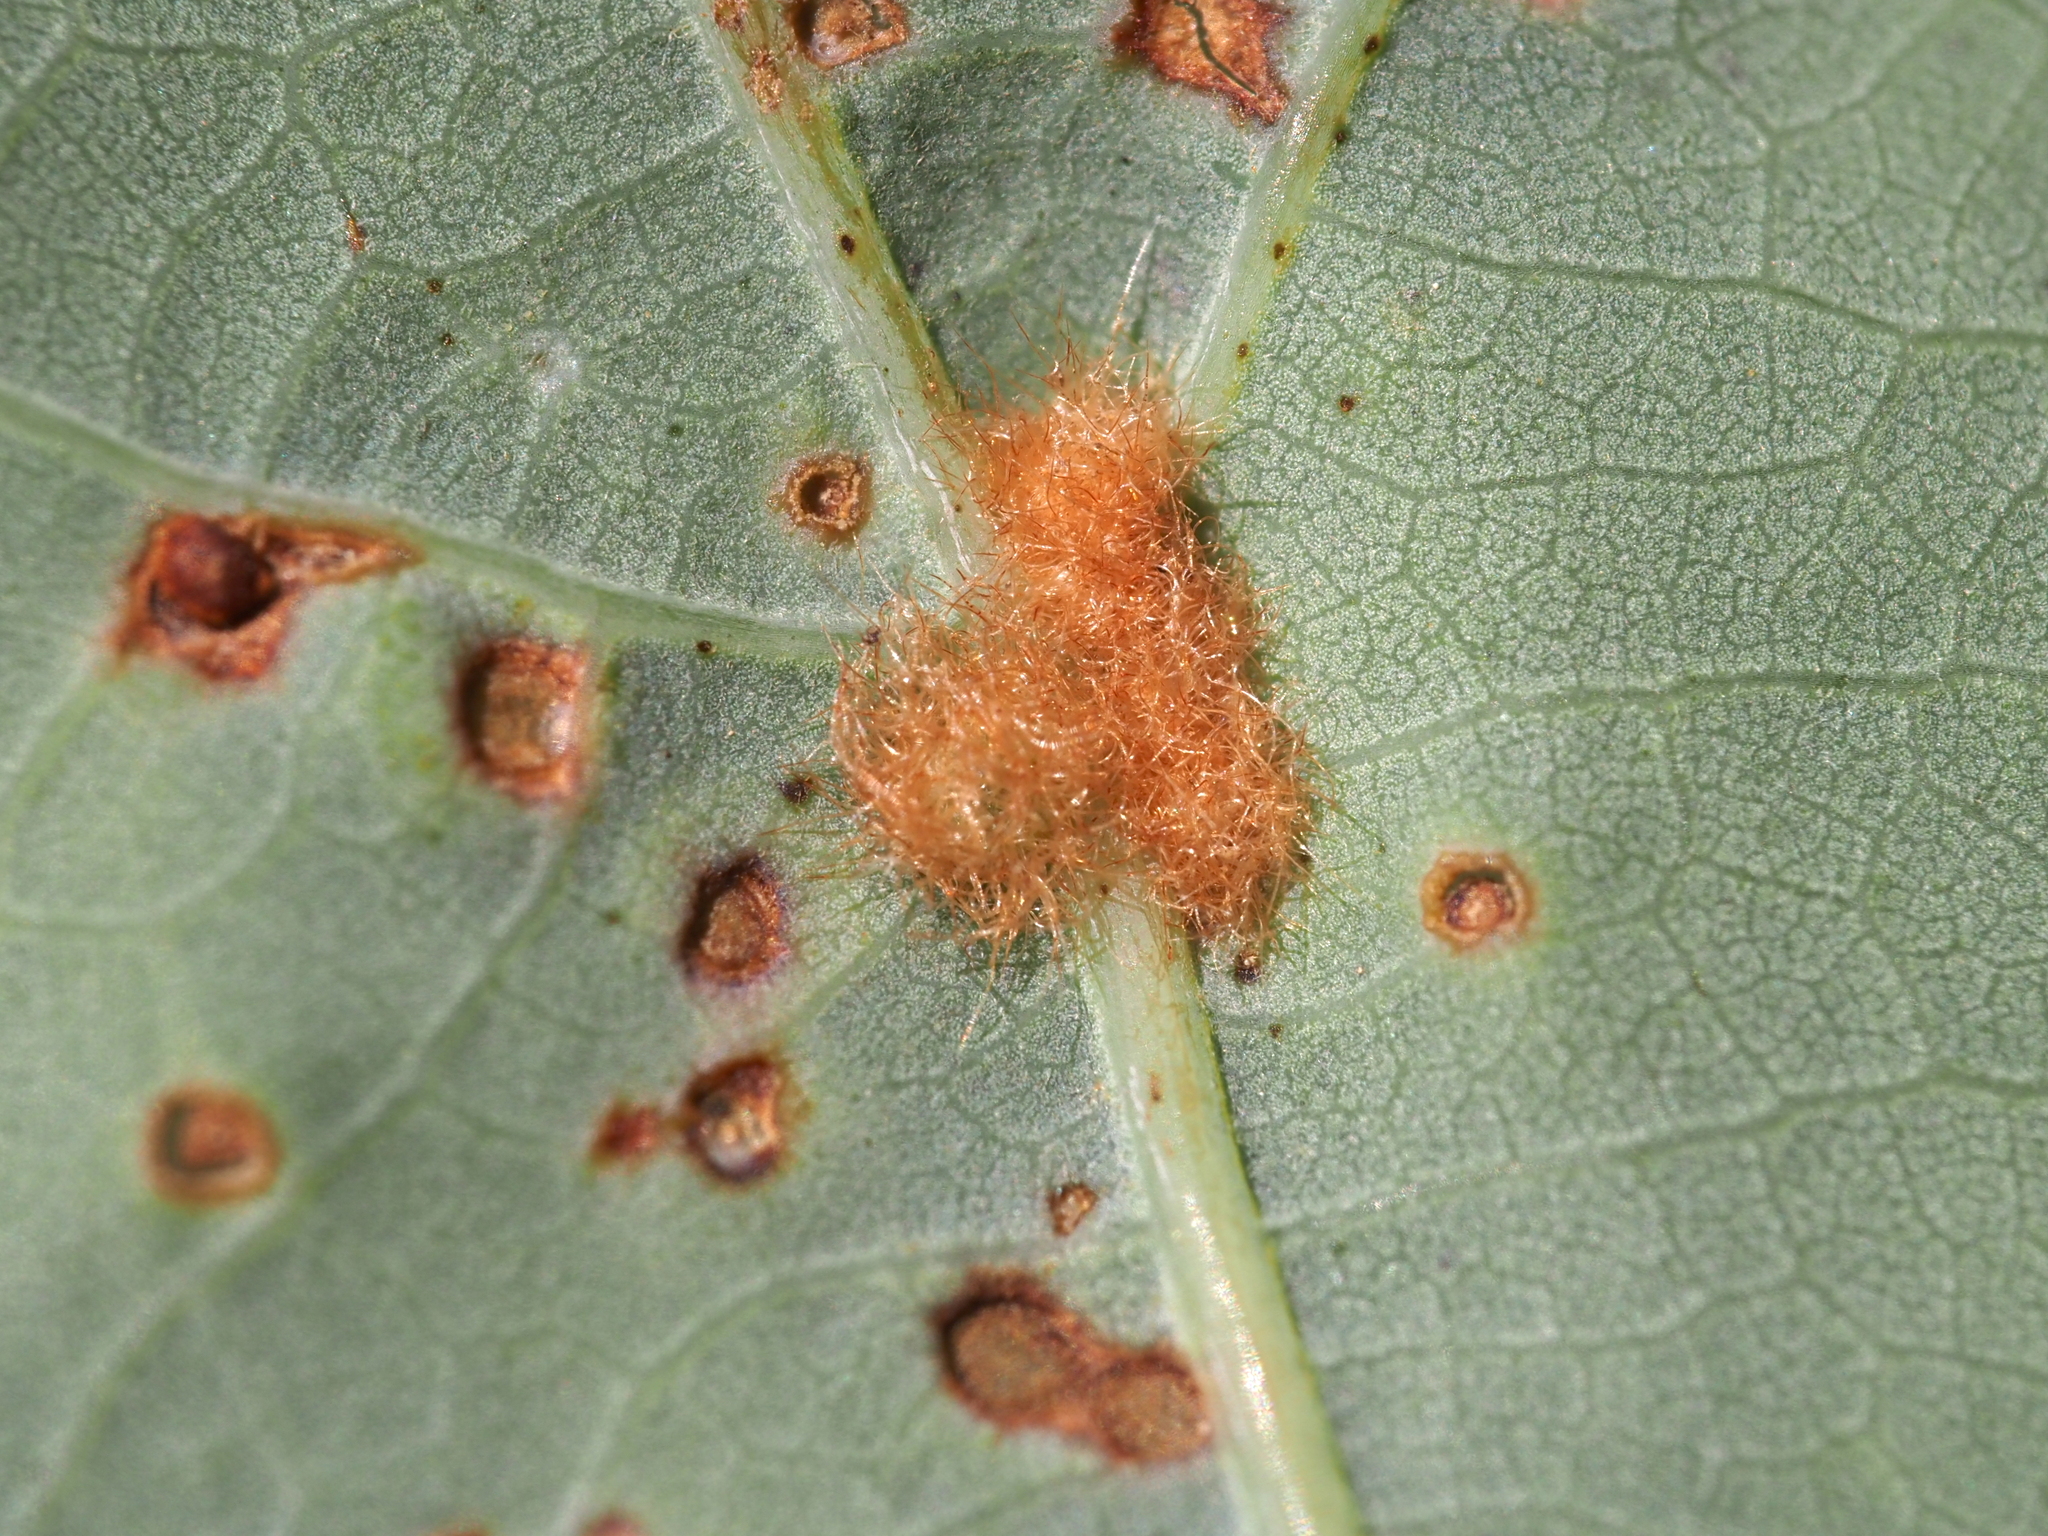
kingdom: Animalia
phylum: Arthropoda
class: Insecta
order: Hymenoptera
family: Cynipidae
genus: Neuroterus
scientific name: Neuroterus quercusverrucarum
